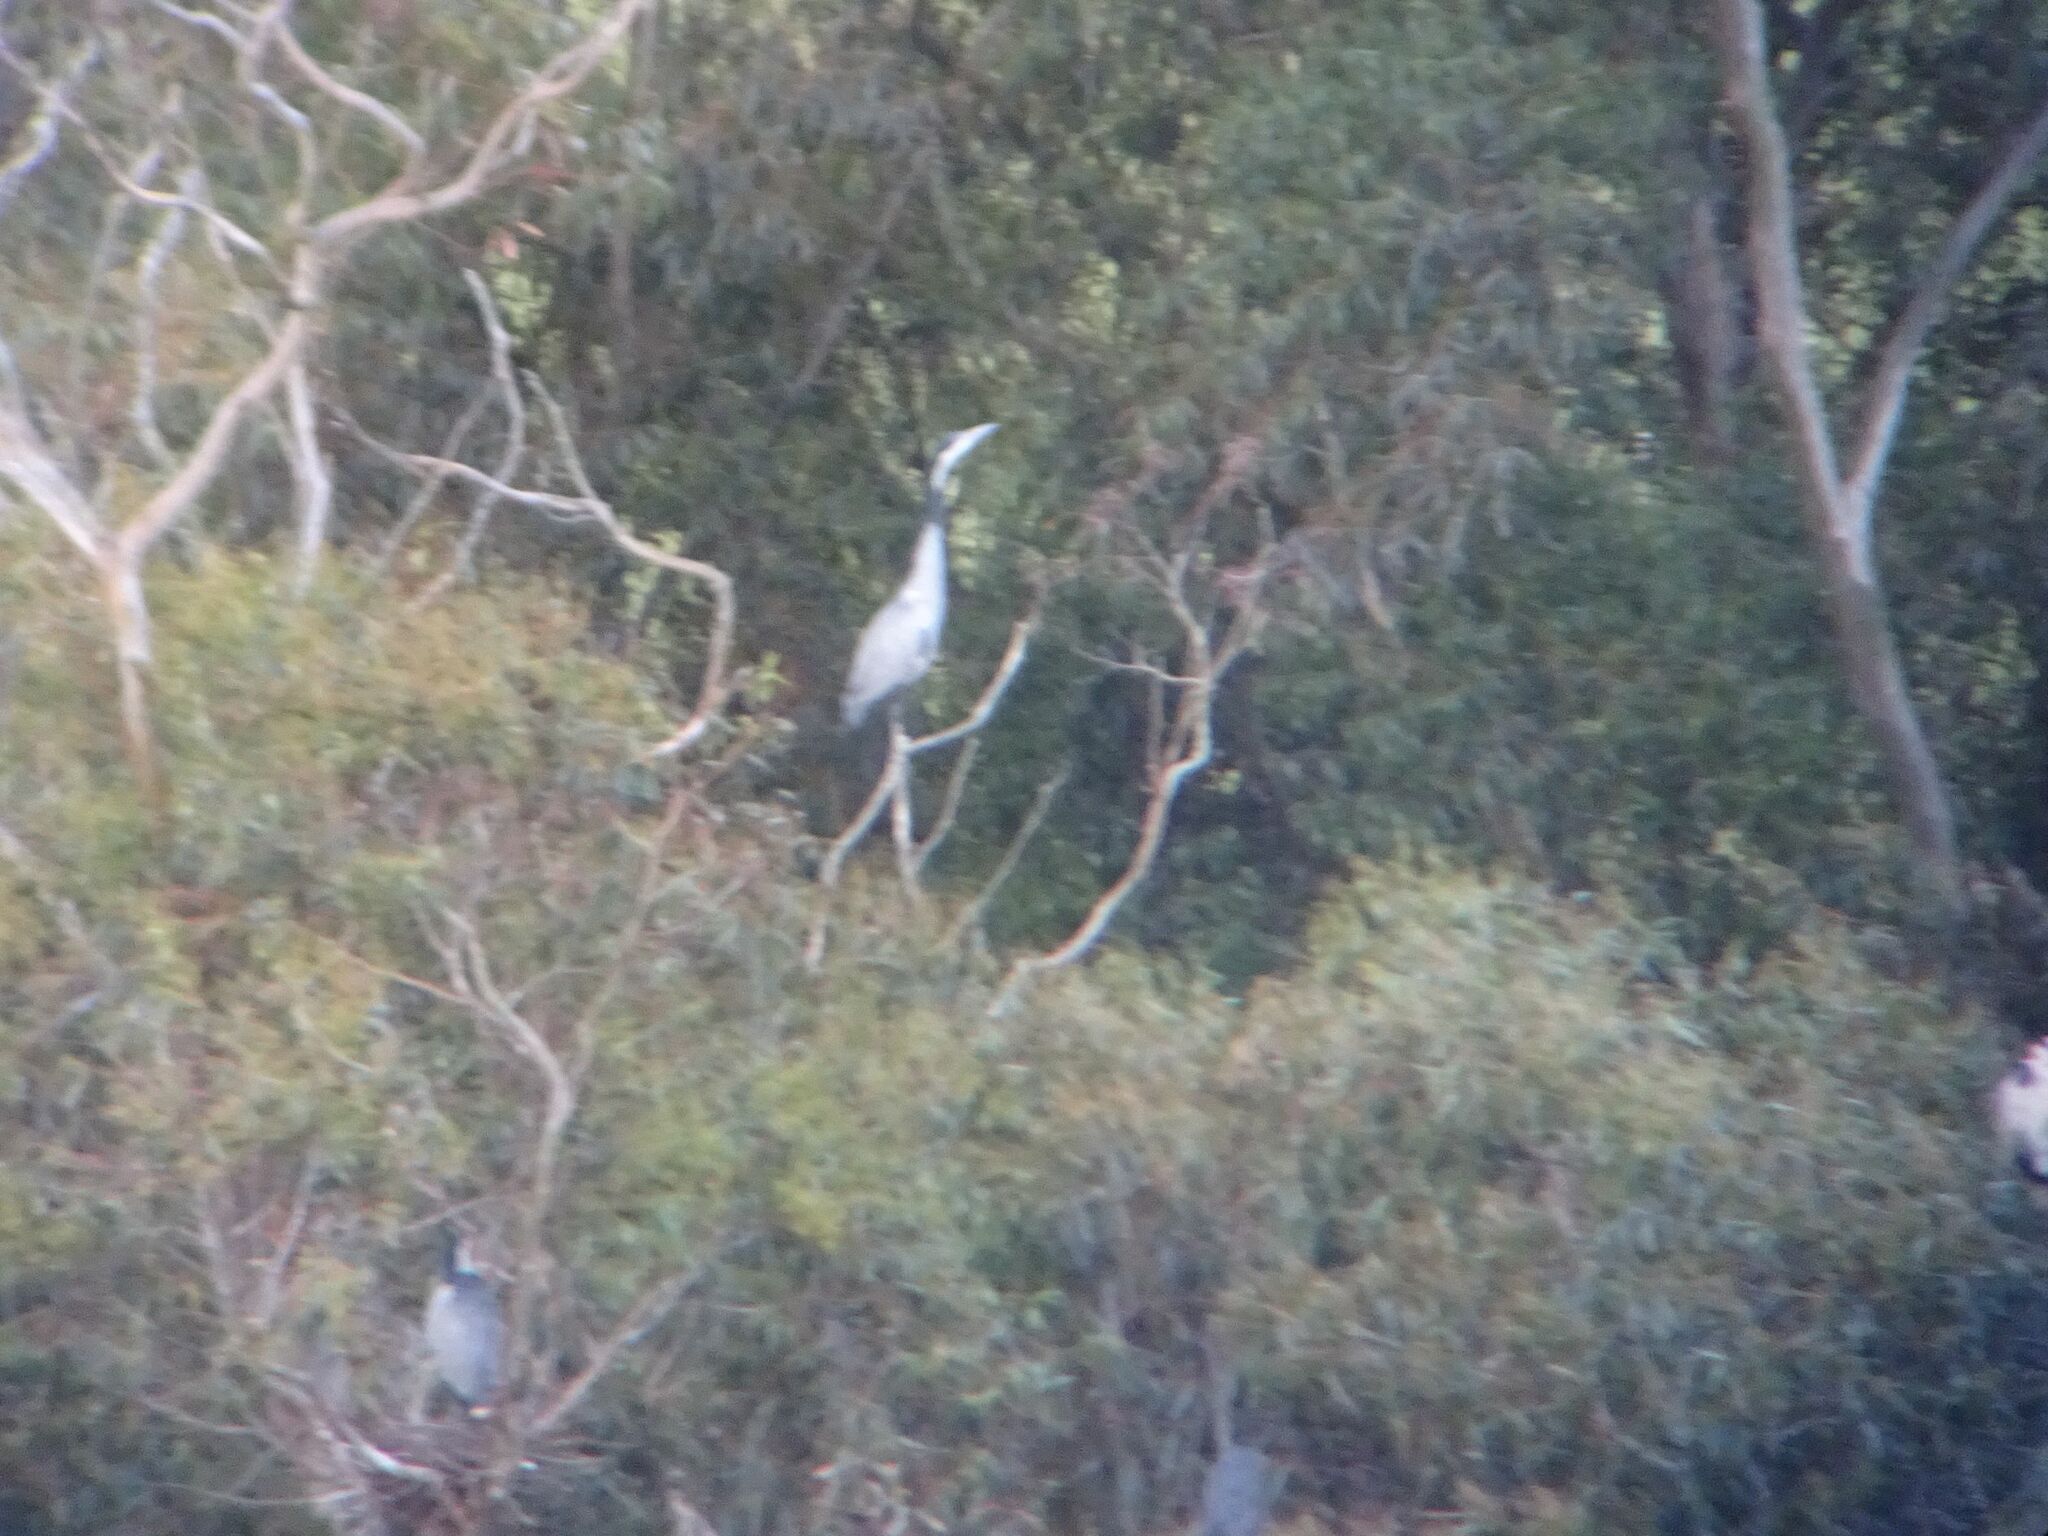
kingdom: Animalia
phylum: Chordata
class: Aves
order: Pelecaniformes
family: Ardeidae
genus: Ardea
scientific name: Ardea melanocephala
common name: Black-headed heron
